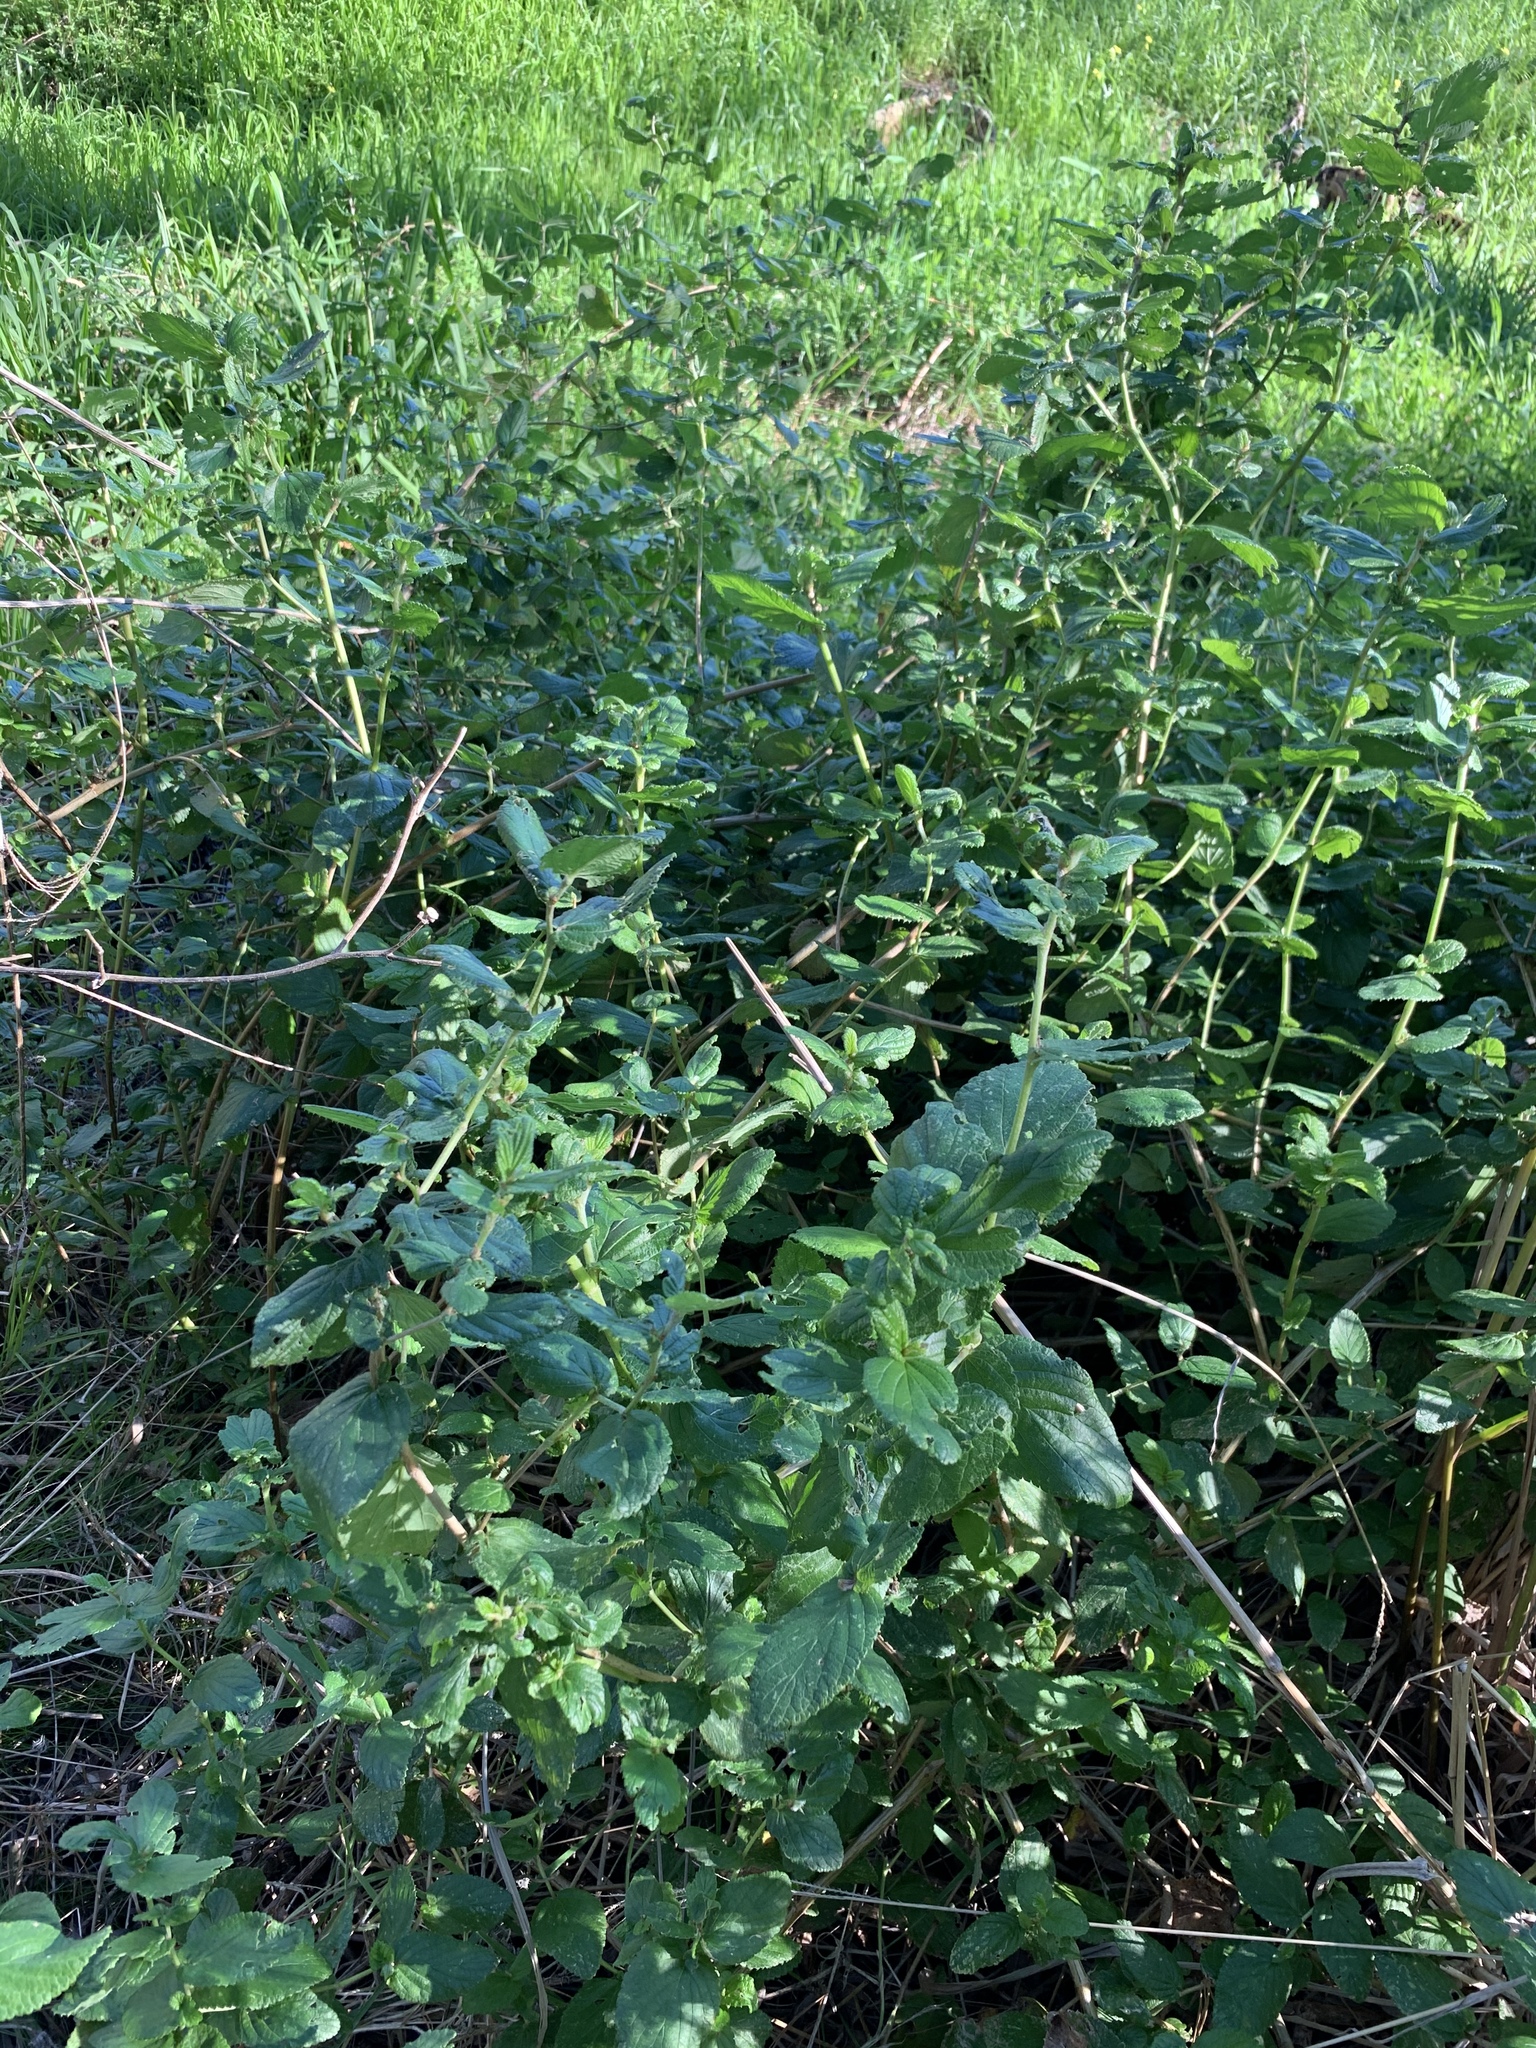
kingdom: Plantae
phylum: Tracheophyta
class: Magnoliopsida
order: Rosales
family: Rosaceae
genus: Cliffortia
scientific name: Cliffortia odorata
